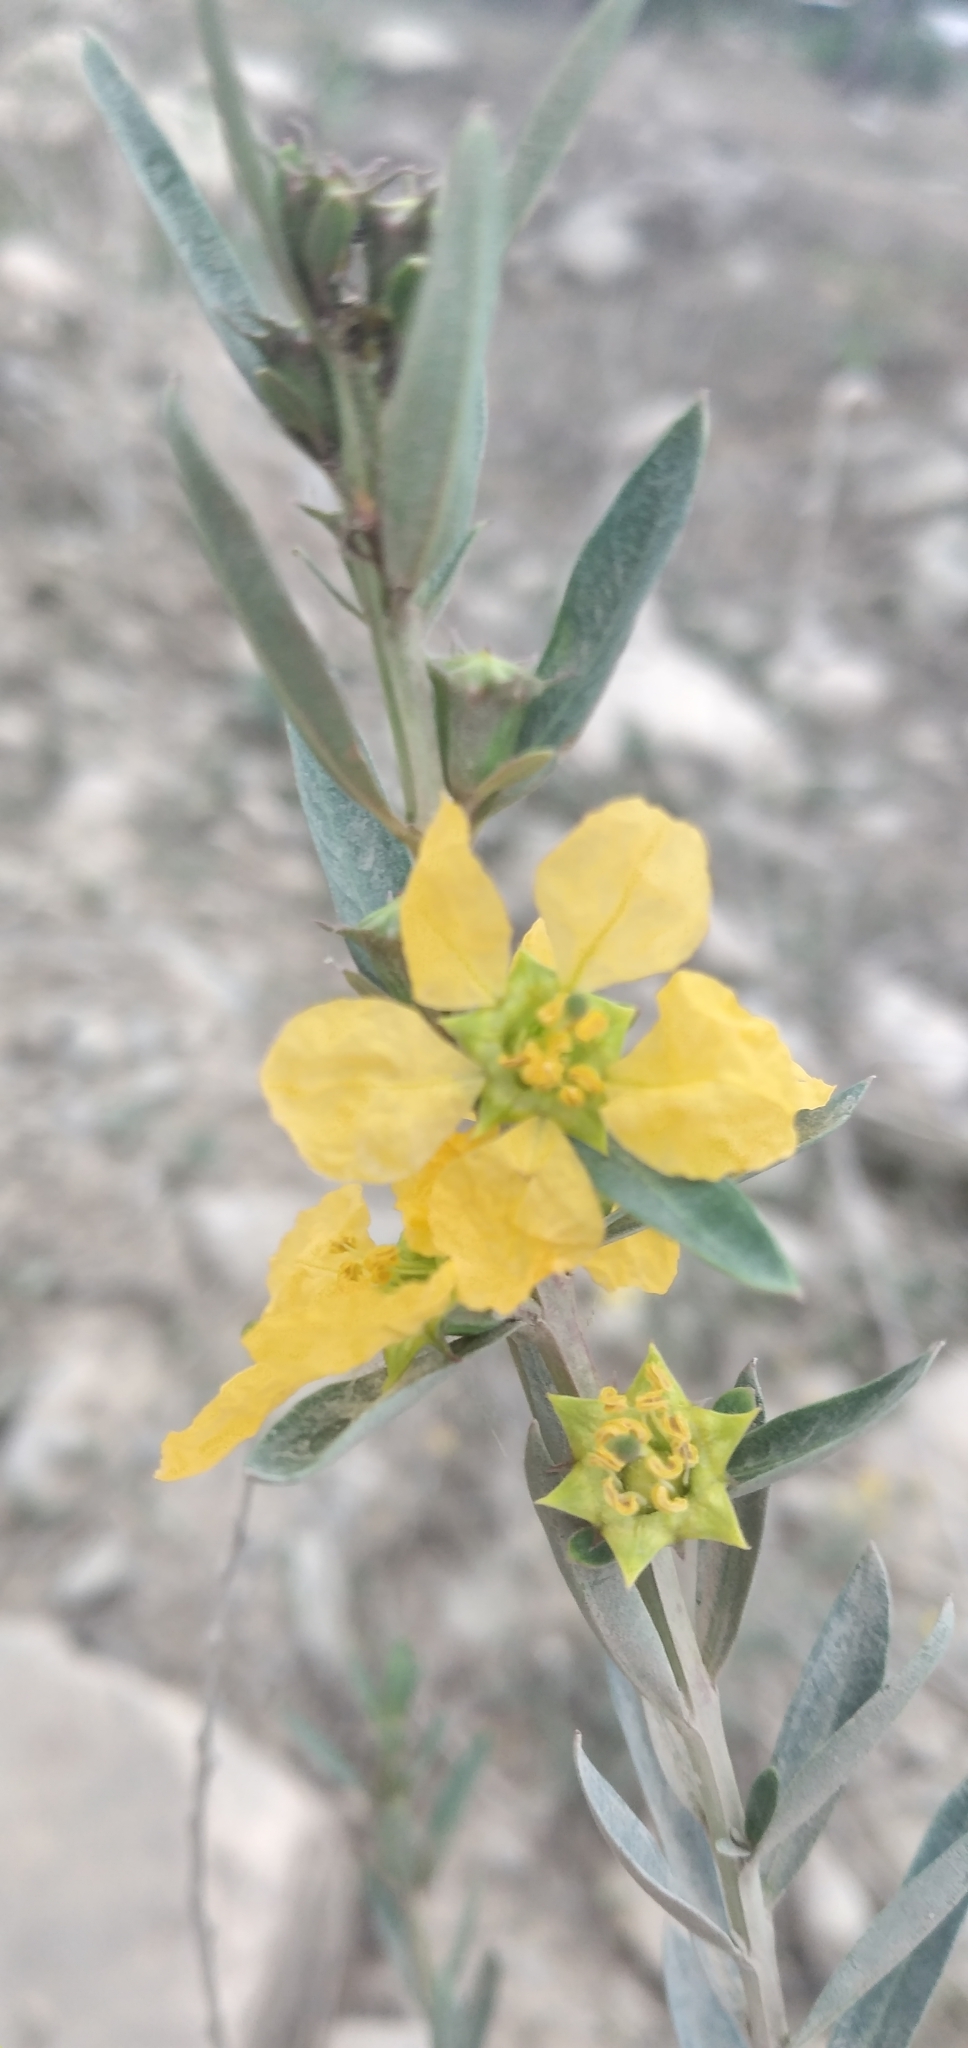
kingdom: Plantae
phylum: Tracheophyta
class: Magnoliopsida
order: Myrtales
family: Lythraceae
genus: Heimia
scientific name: Heimia salicifolia
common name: Willow-leaf heimia
